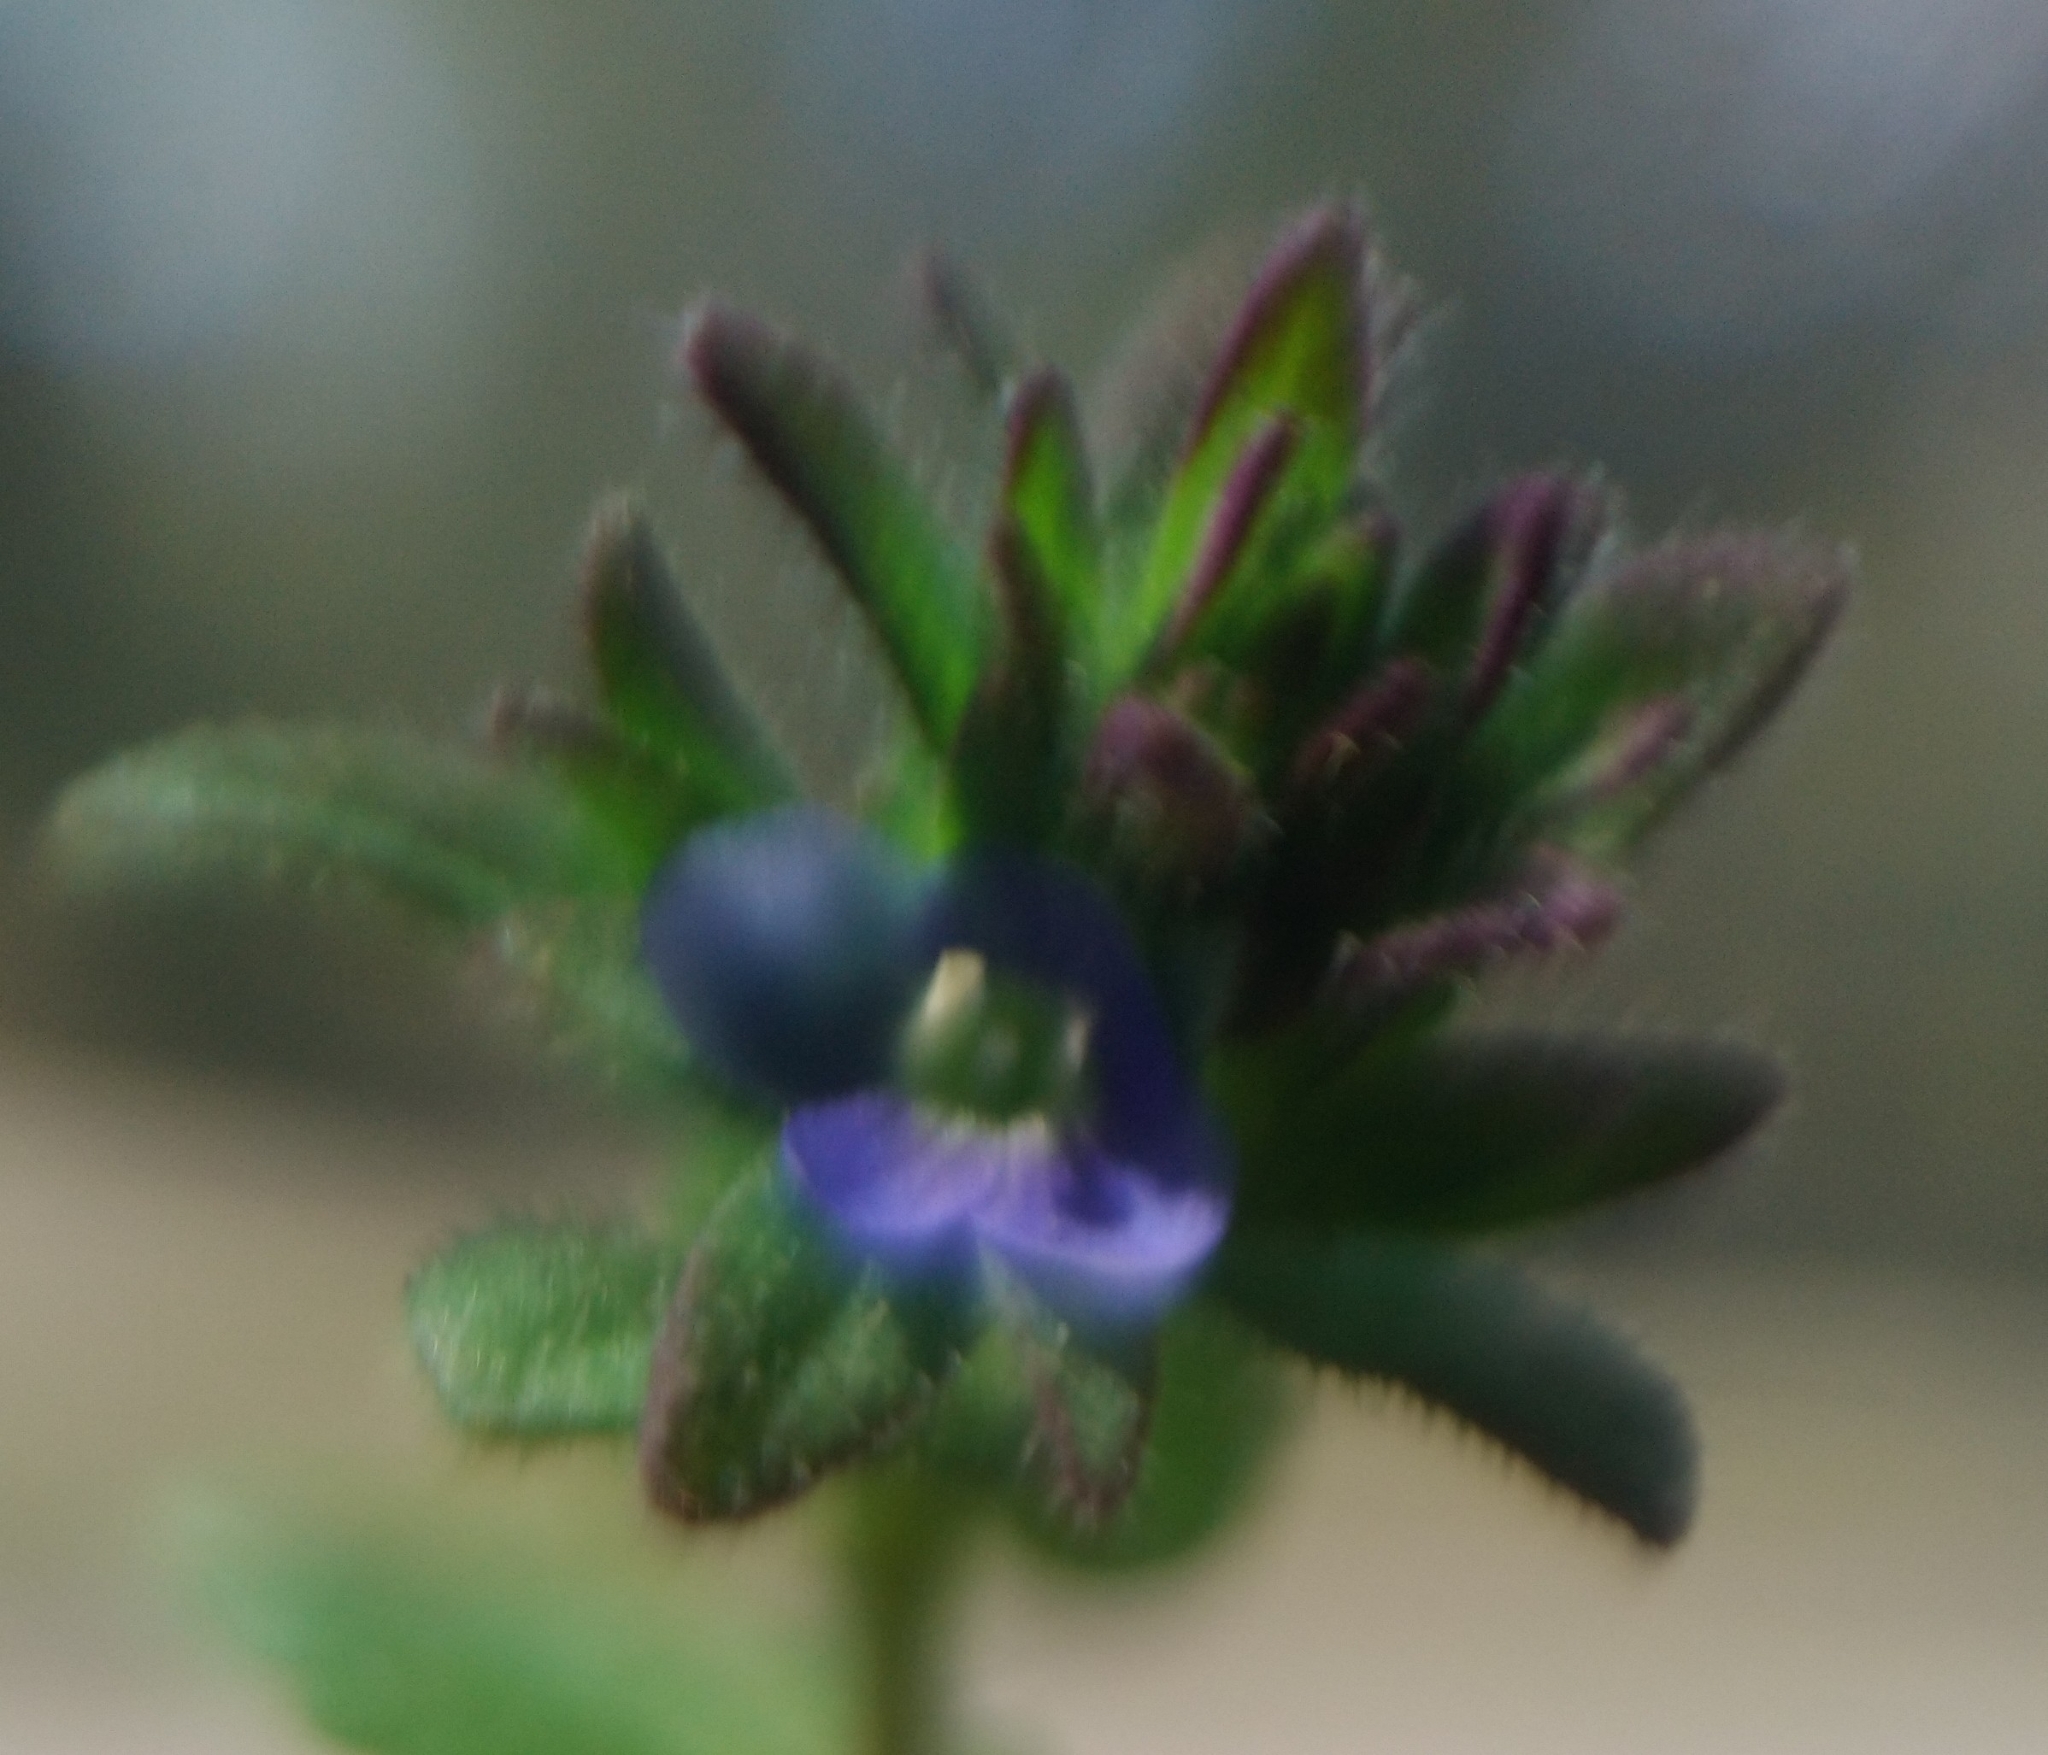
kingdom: Plantae
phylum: Tracheophyta
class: Magnoliopsida
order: Lamiales
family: Plantaginaceae
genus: Veronica
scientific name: Veronica arvensis
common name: Corn speedwell
